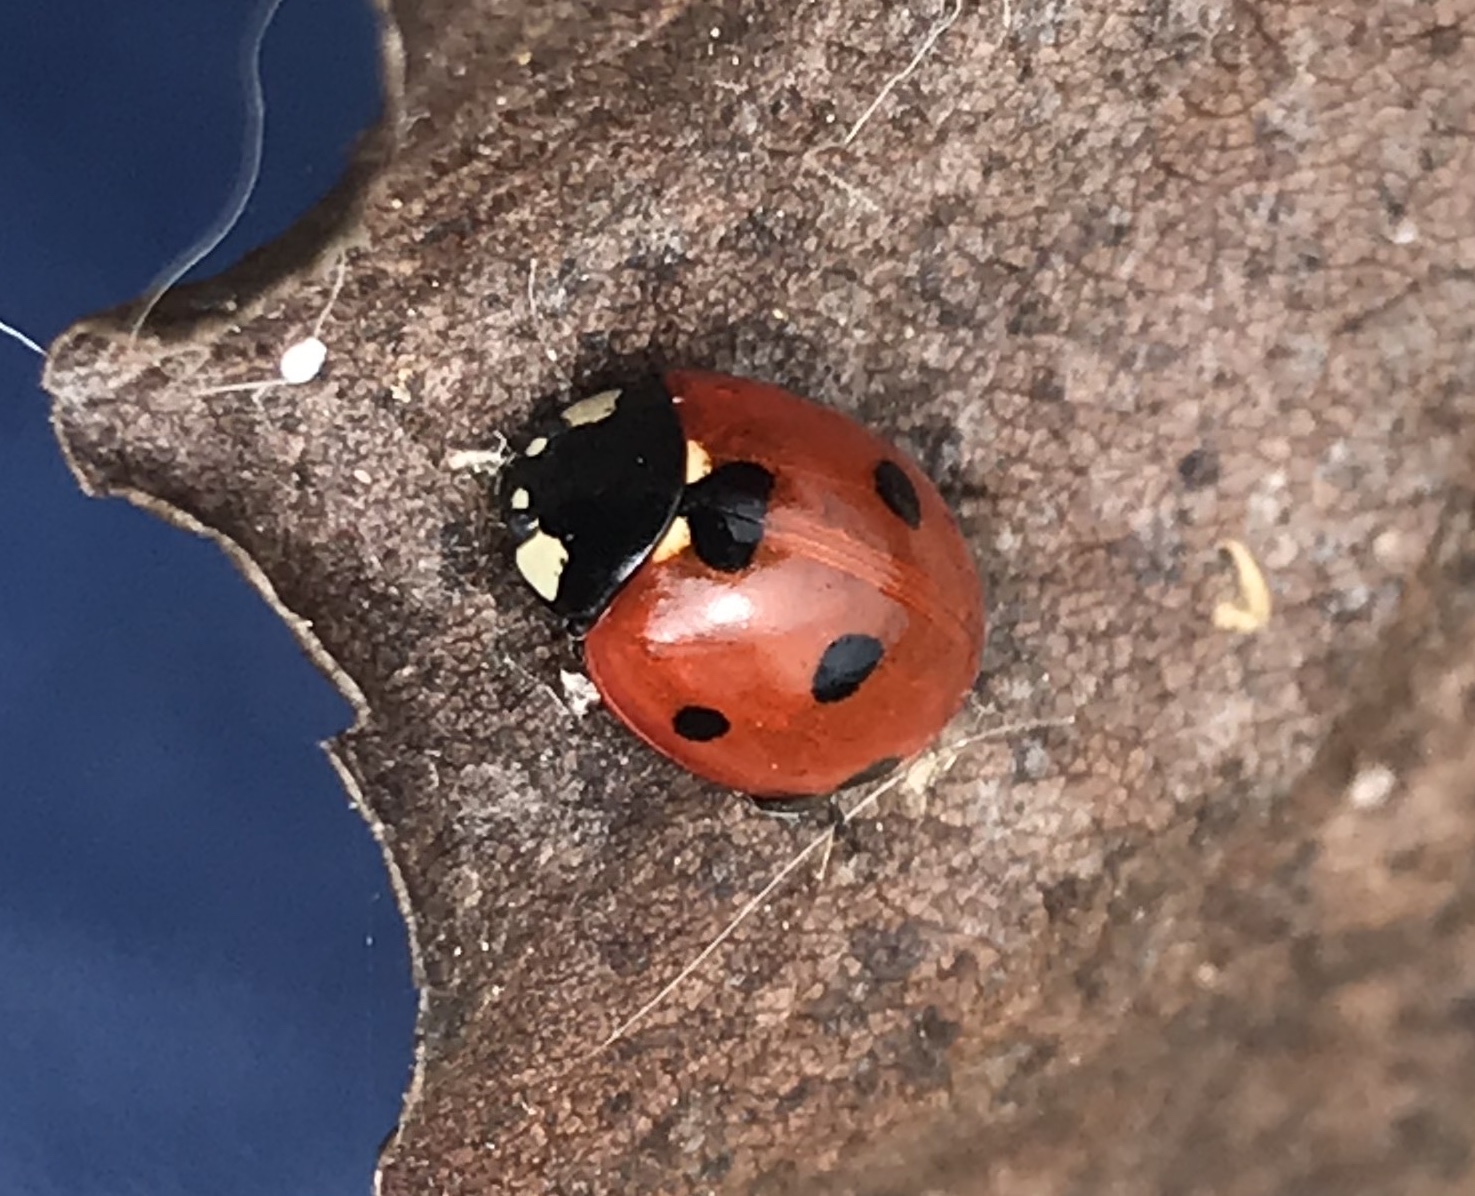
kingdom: Animalia
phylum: Arthropoda
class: Insecta
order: Coleoptera
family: Coccinellidae
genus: Coccinella
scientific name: Coccinella septempunctata
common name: Sevenspotted lady beetle
